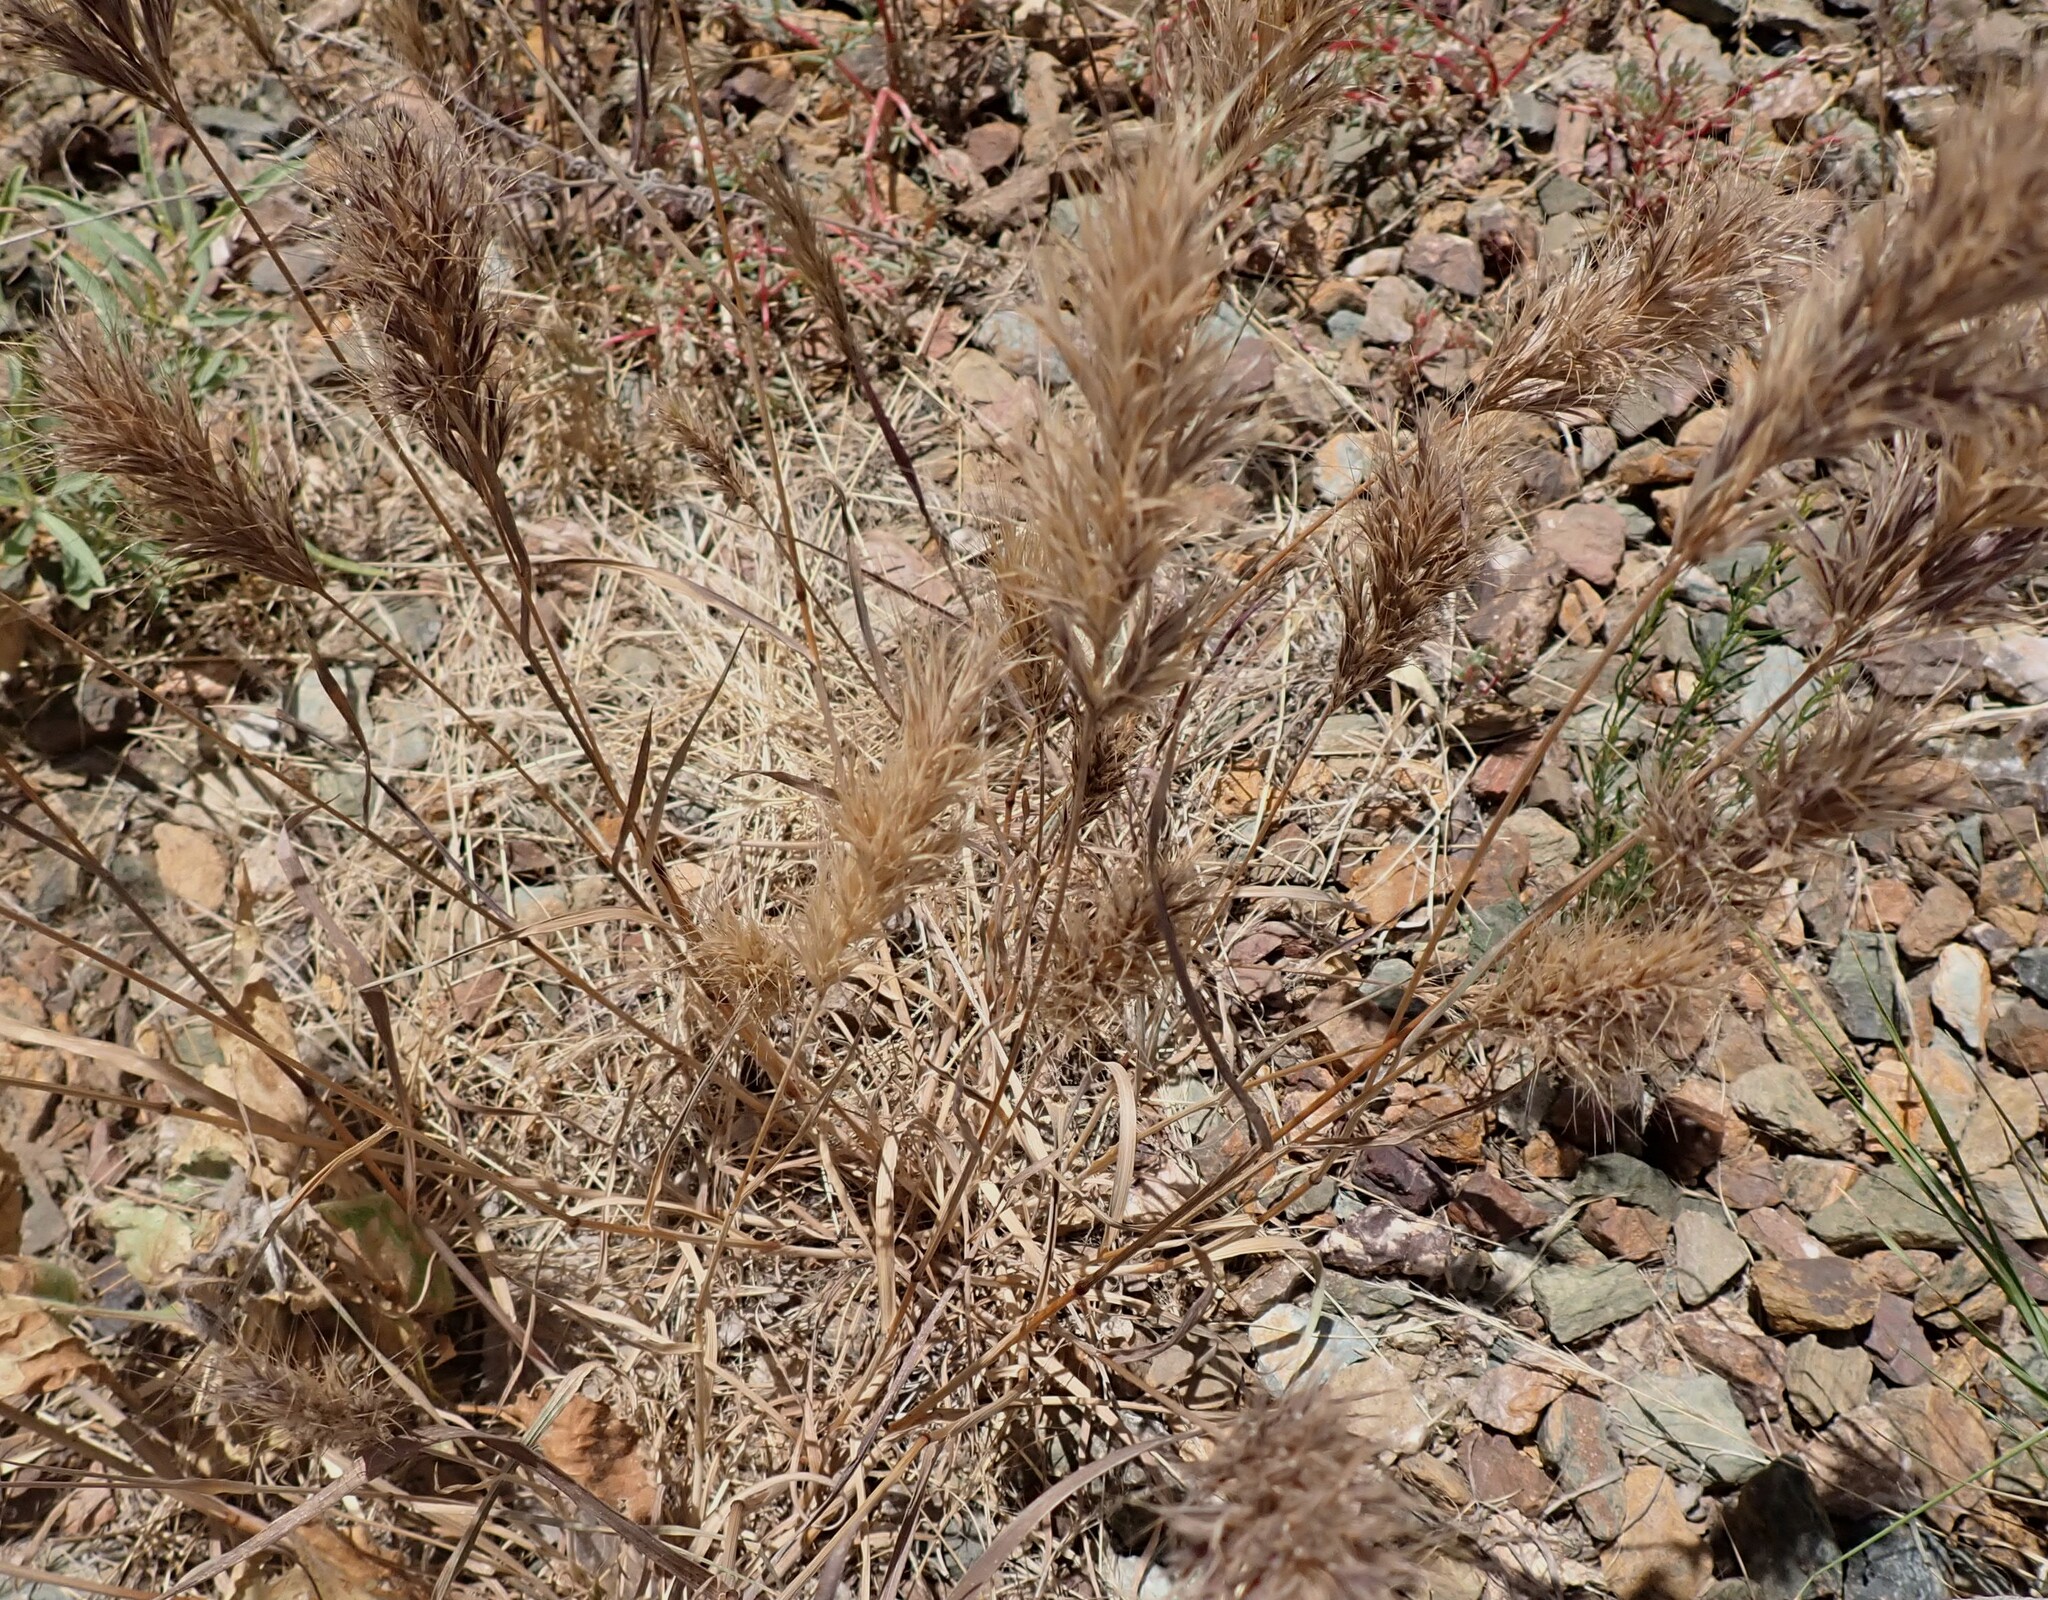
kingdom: Plantae
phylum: Tracheophyta
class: Liliopsida
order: Poales
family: Poaceae
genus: Bromus
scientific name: Bromus rubens
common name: Red brome
